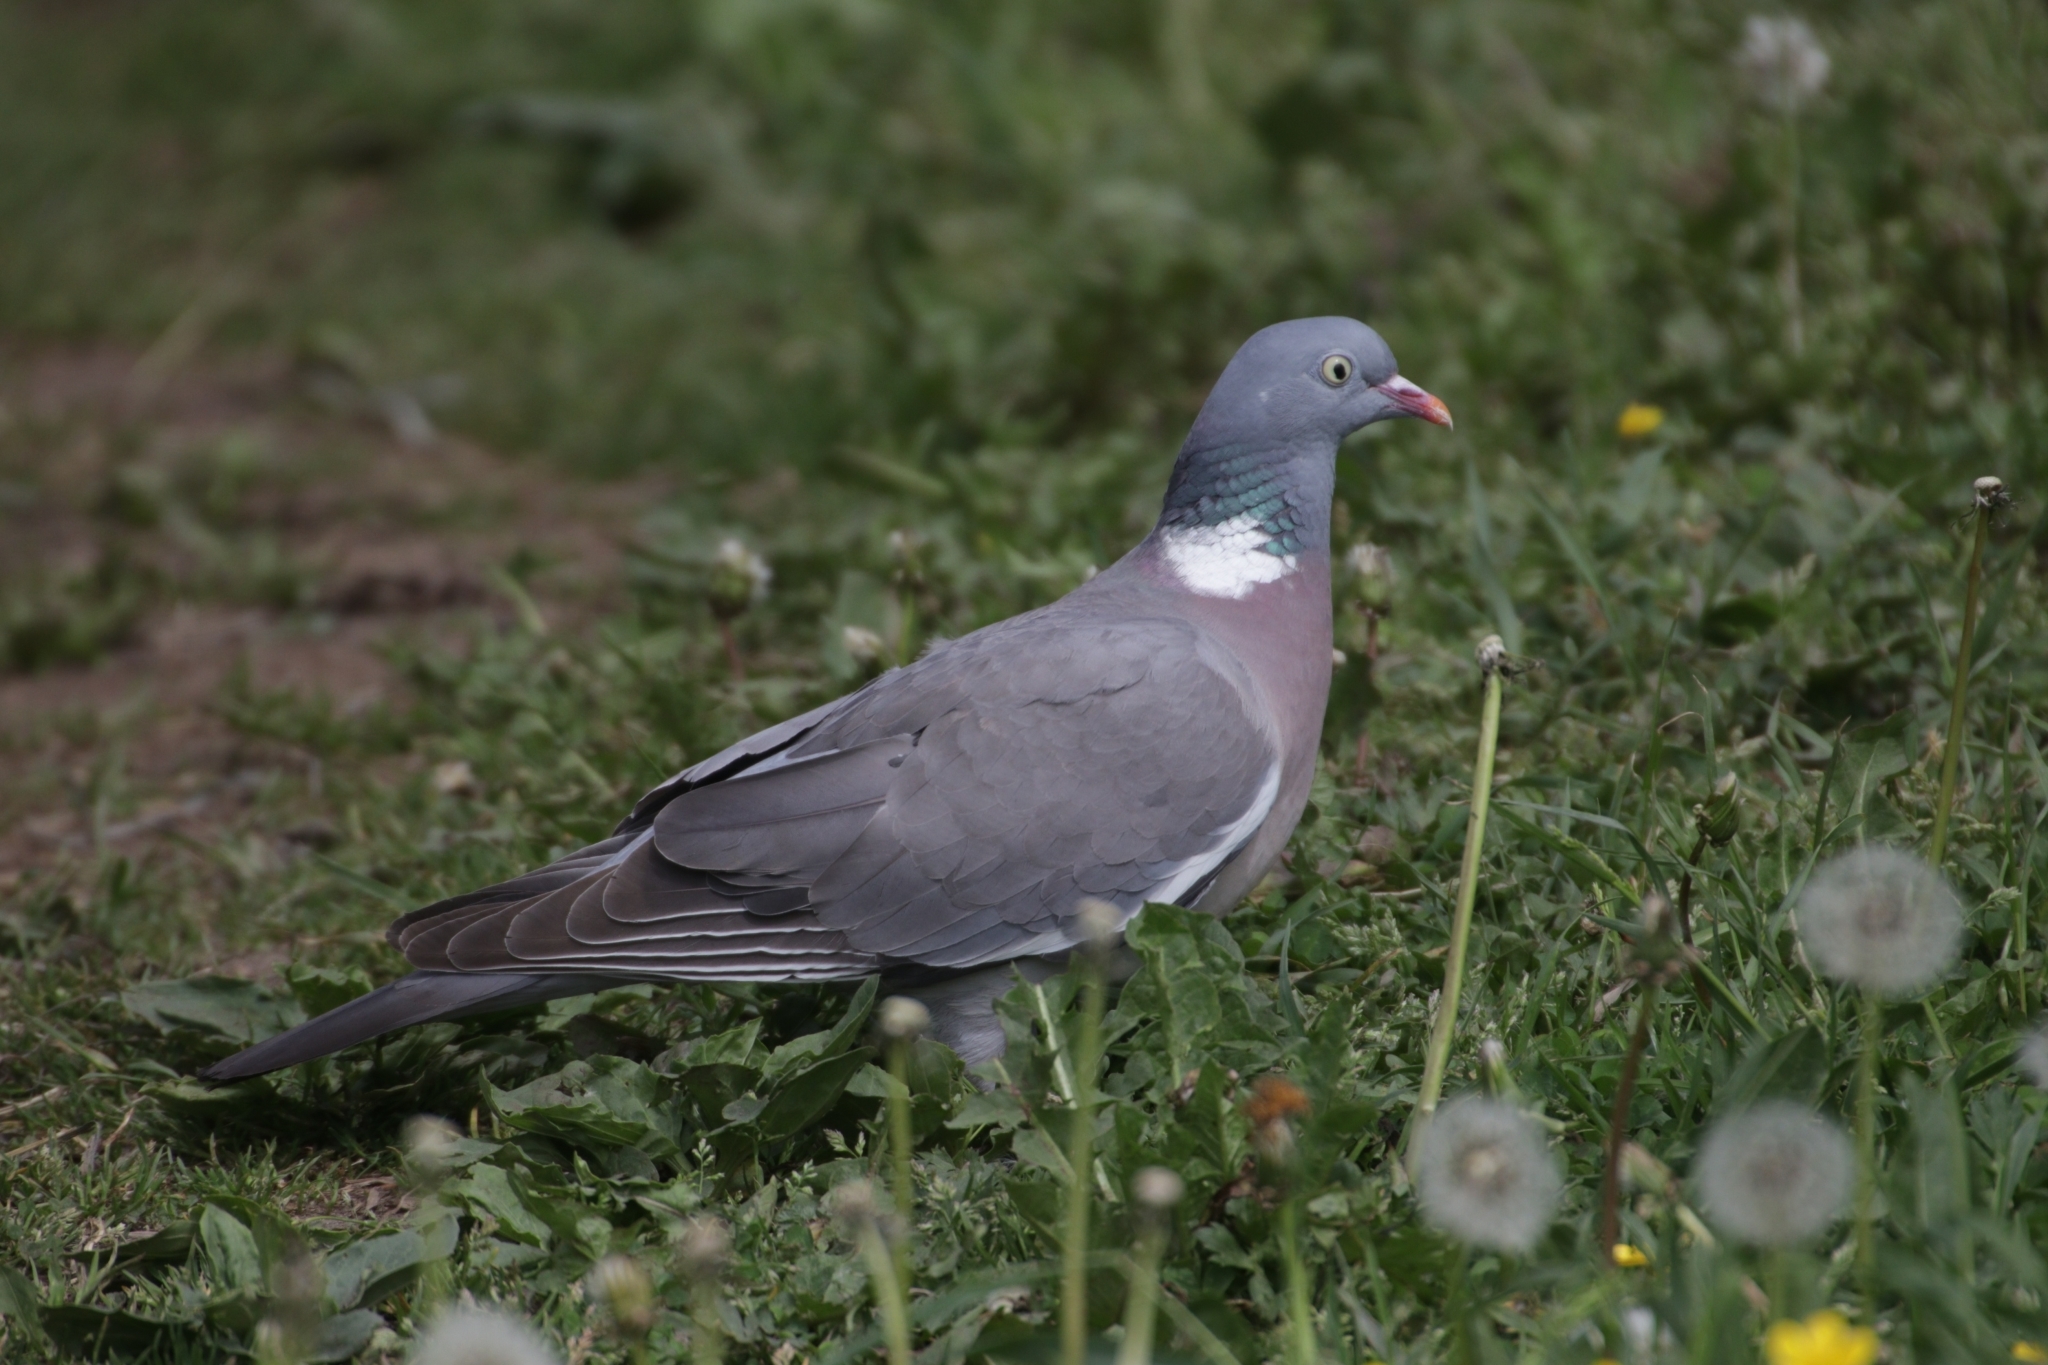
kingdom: Animalia
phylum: Chordata
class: Aves
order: Columbiformes
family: Columbidae
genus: Columba
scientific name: Columba palumbus
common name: Common wood pigeon
